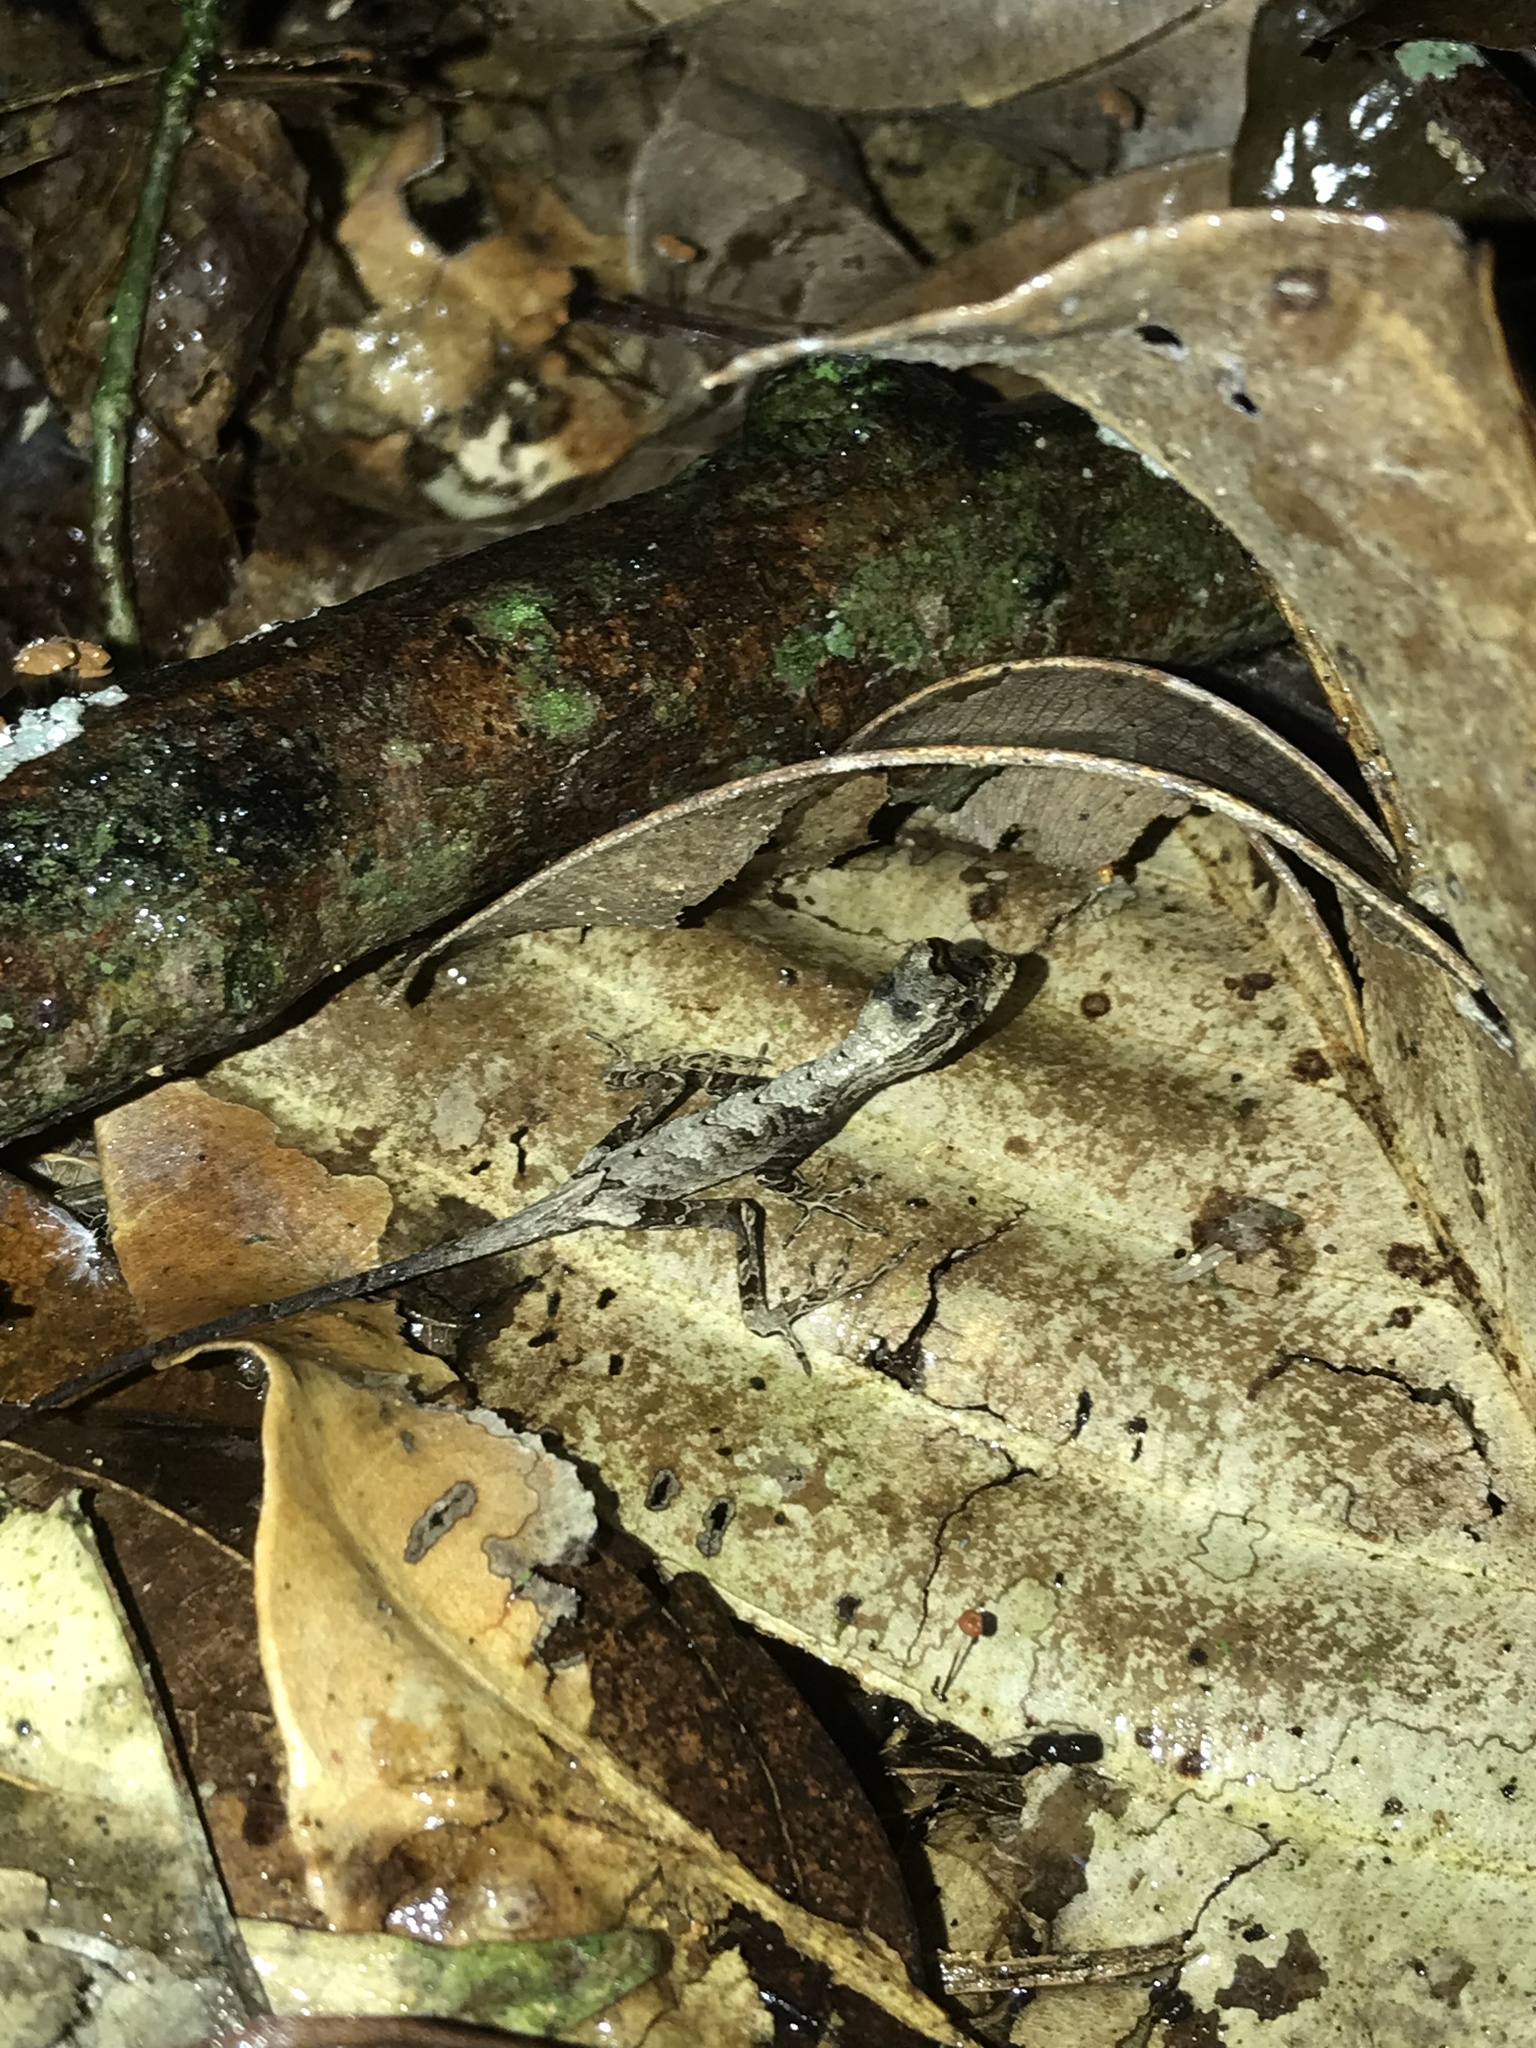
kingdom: Animalia
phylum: Chordata
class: Squamata
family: Dactyloidae
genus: Anolis
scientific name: Anolis bombiceps
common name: Blue-lipped forest anole
